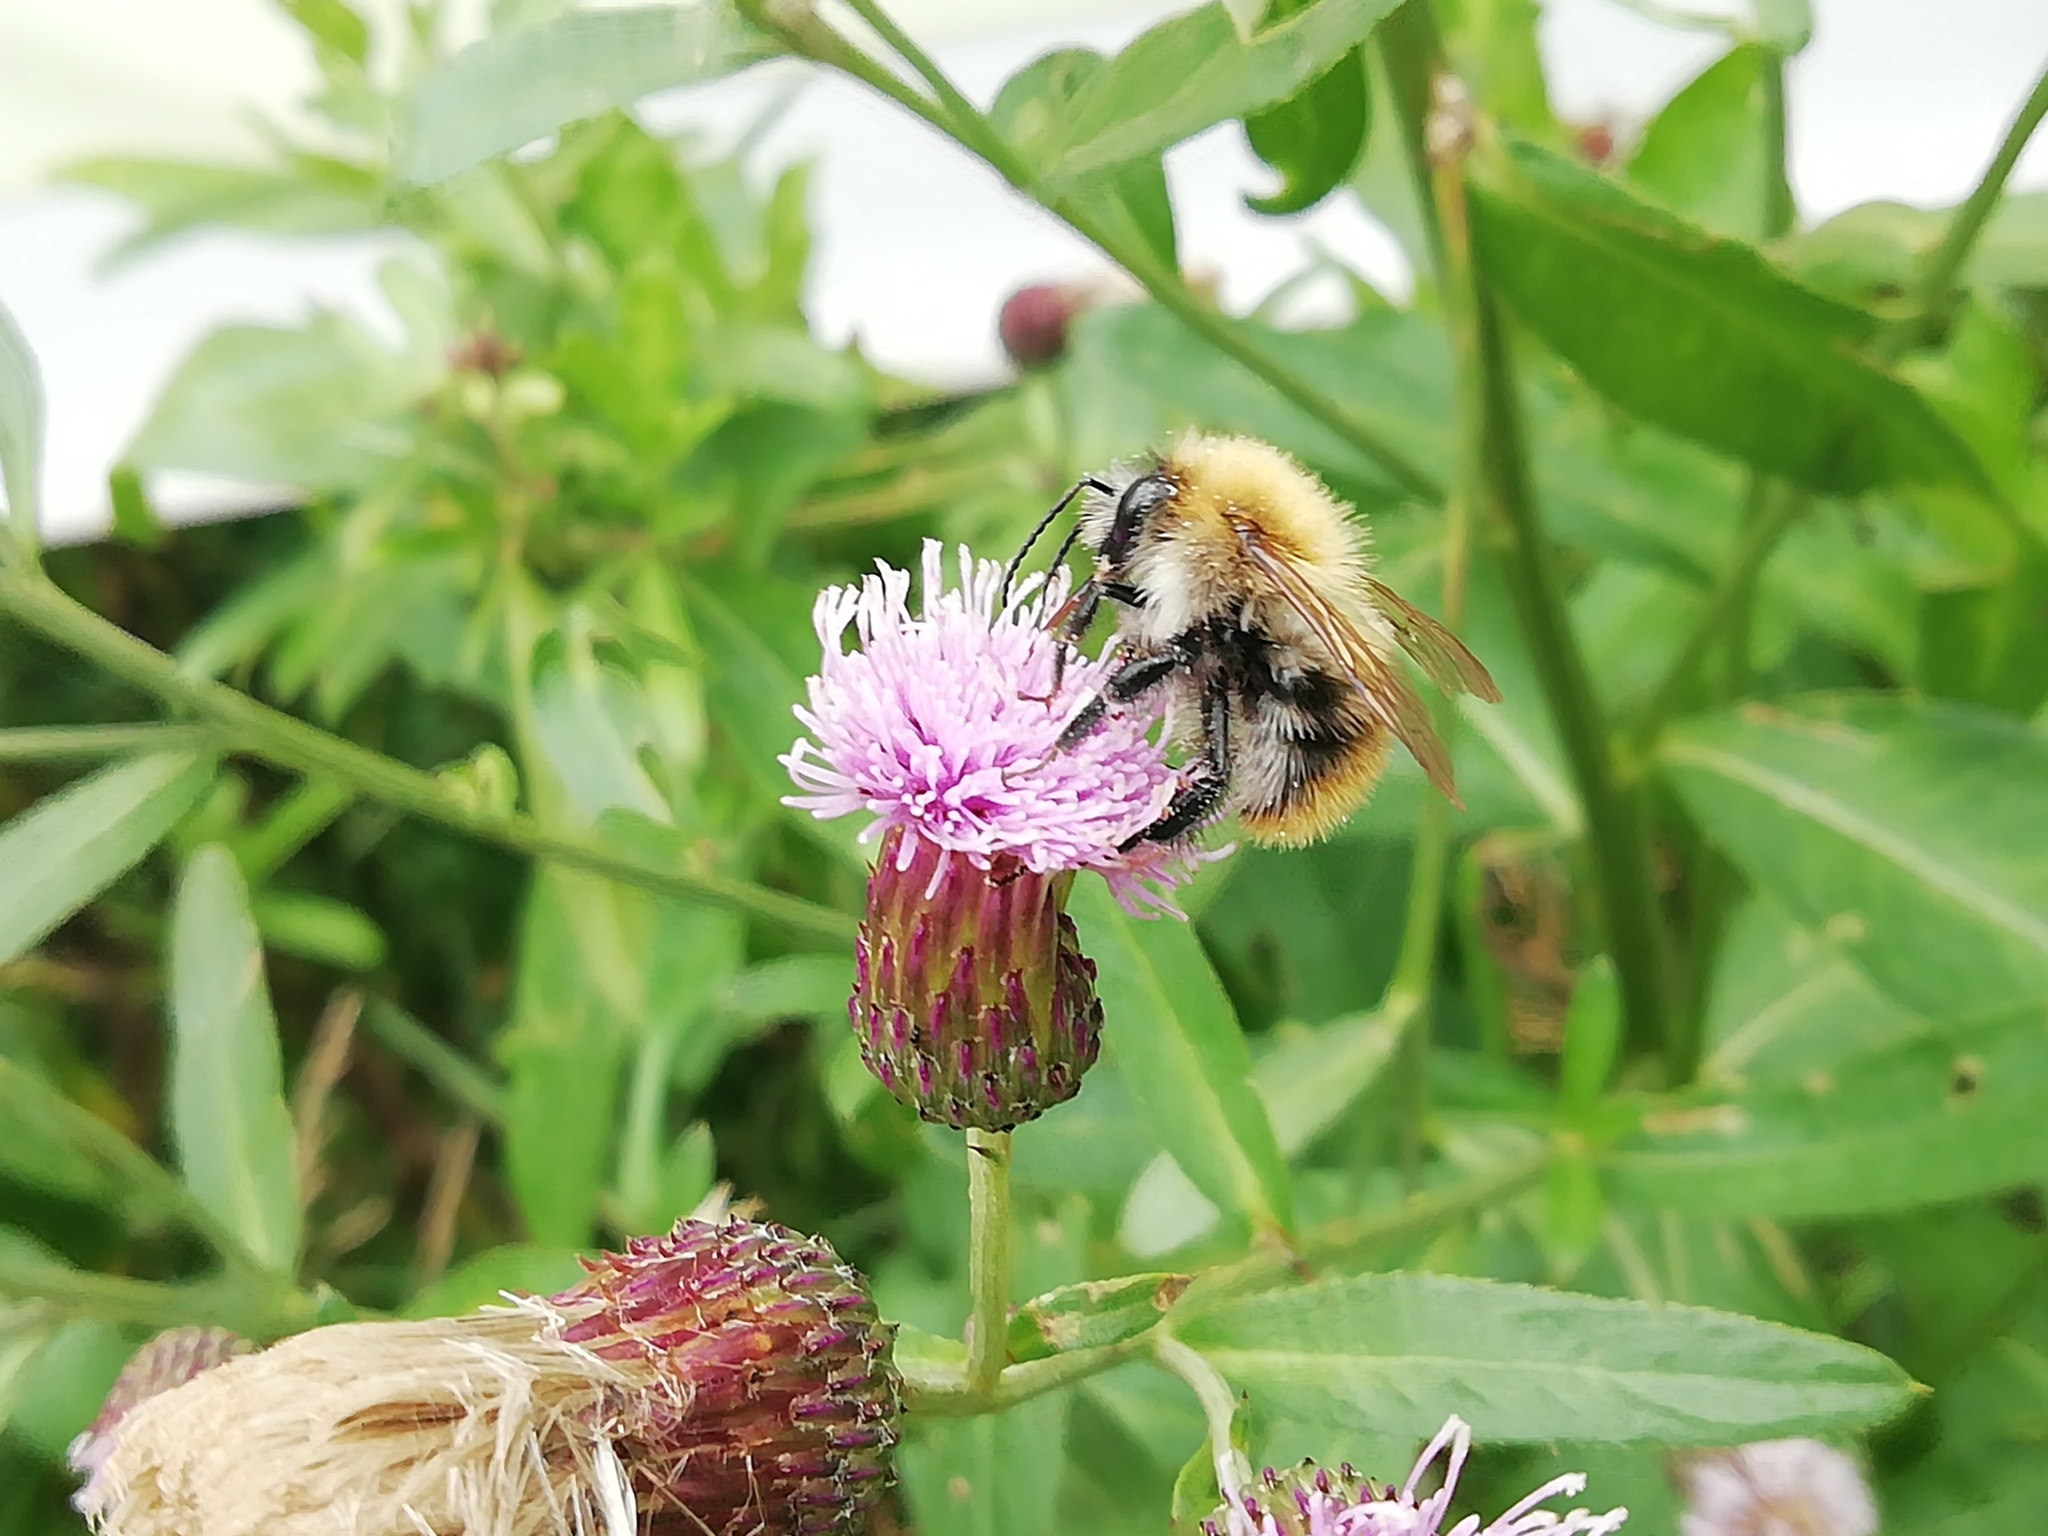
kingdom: Animalia
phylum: Arthropoda
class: Insecta
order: Hymenoptera
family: Apidae
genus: Bombus
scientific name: Bombus pascuorum
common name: Common carder bee
